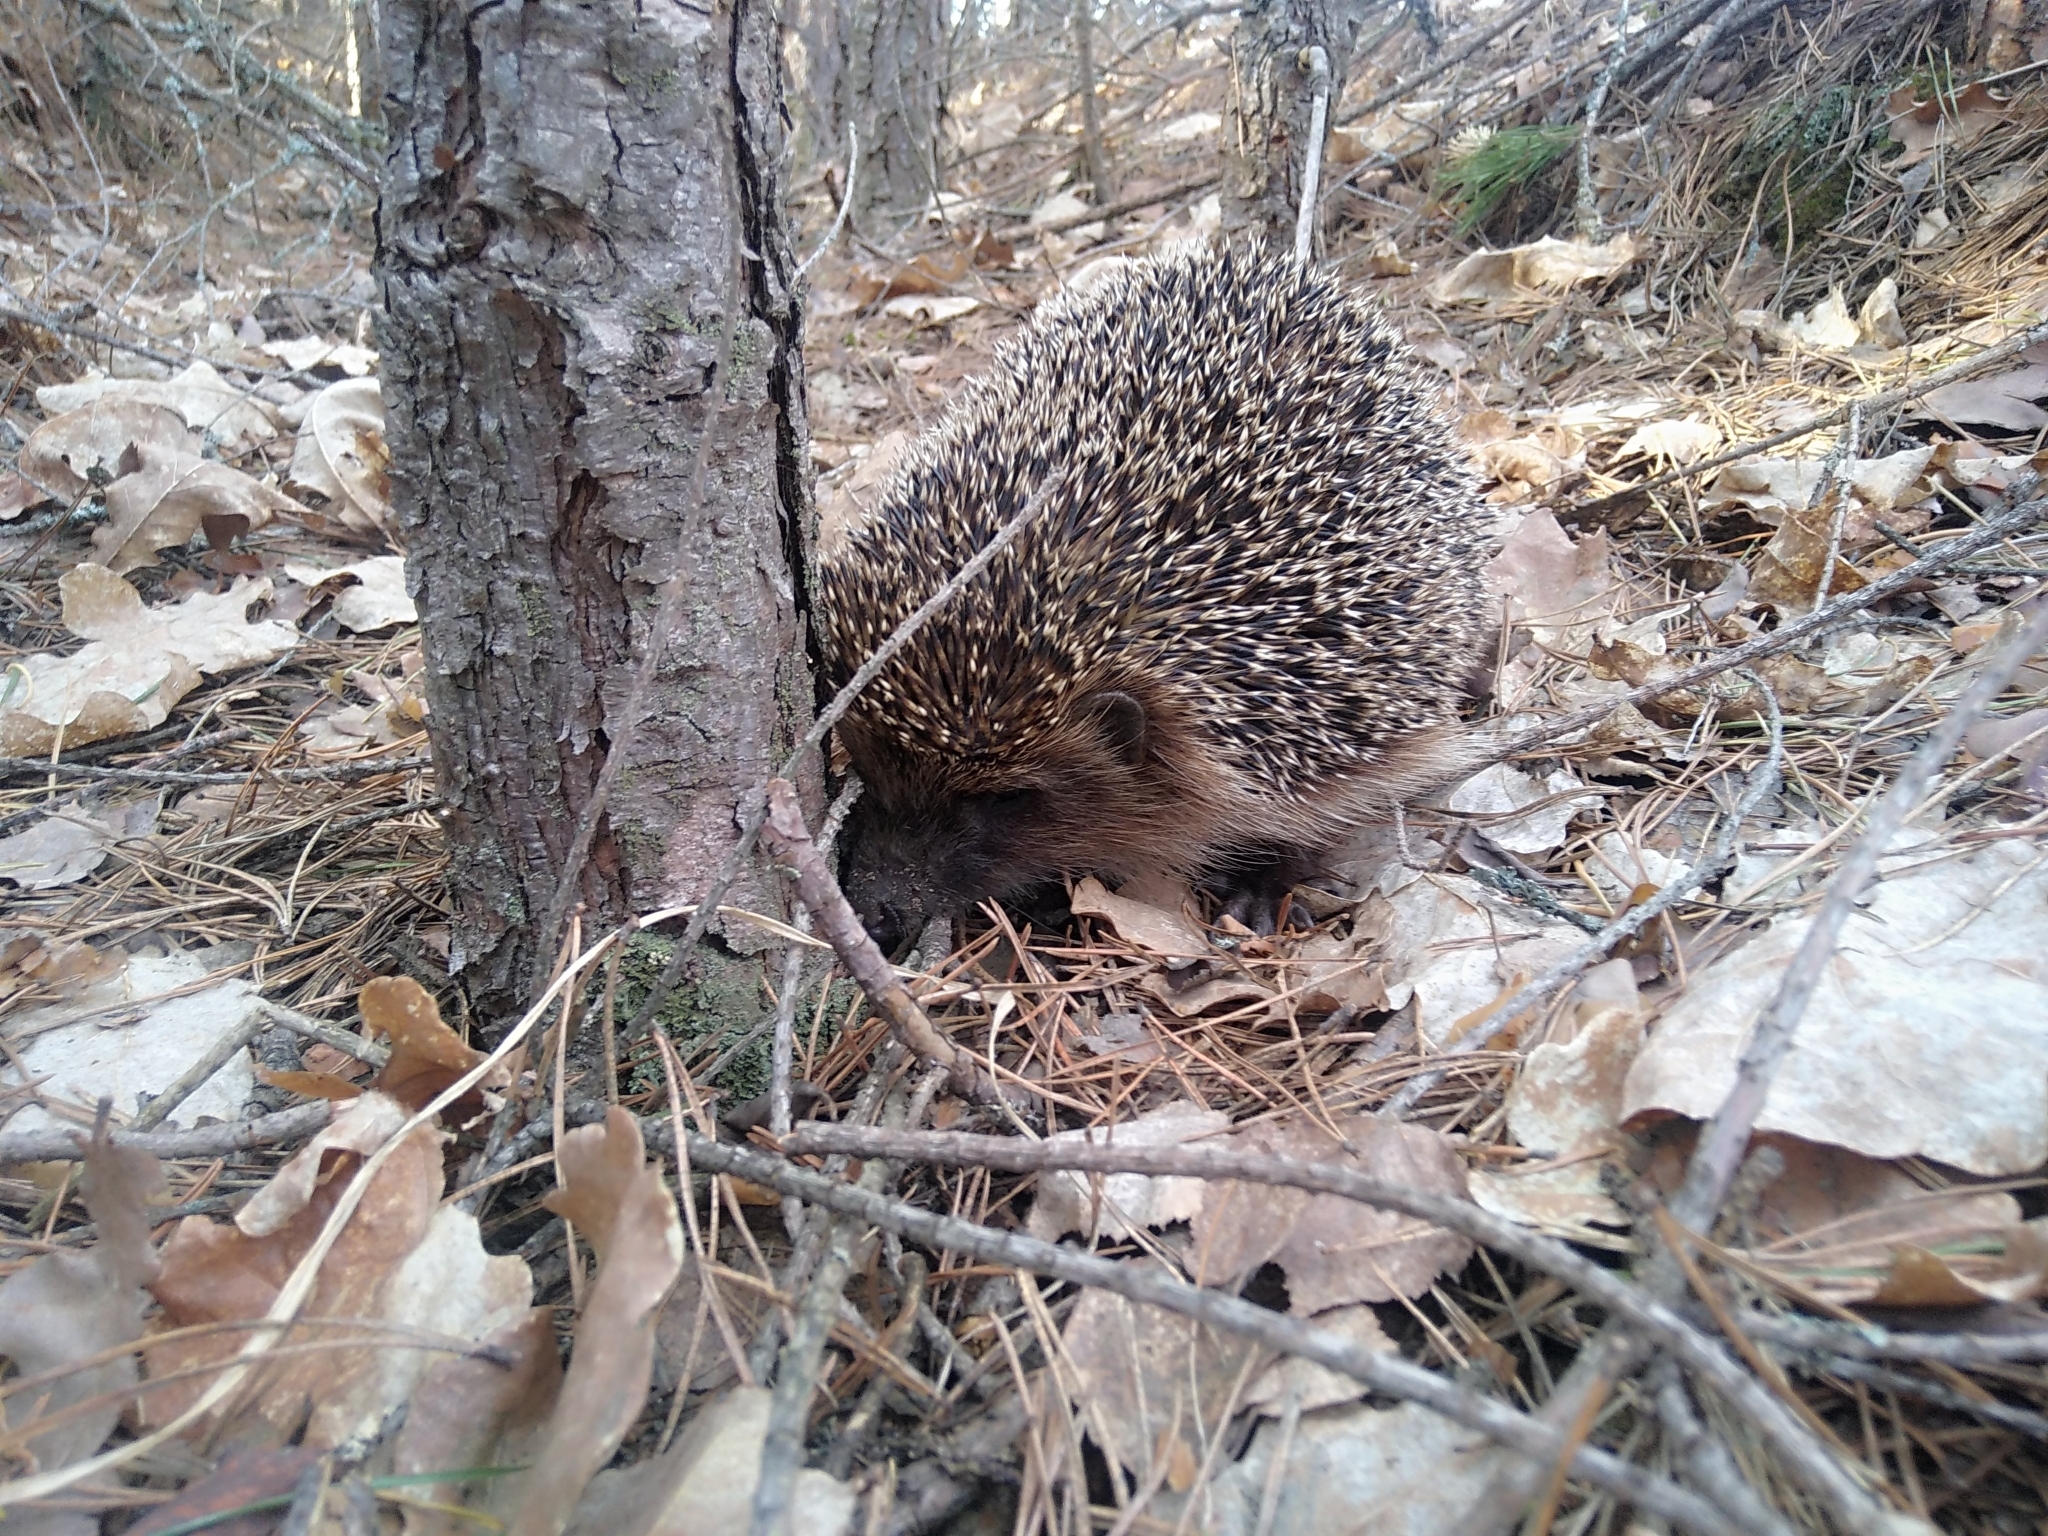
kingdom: Animalia
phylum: Chordata
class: Mammalia
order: Erinaceomorpha
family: Erinaceidae
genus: Erinaceus
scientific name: Erinaceus roumanicus
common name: Northern white-breasted hedgehog
